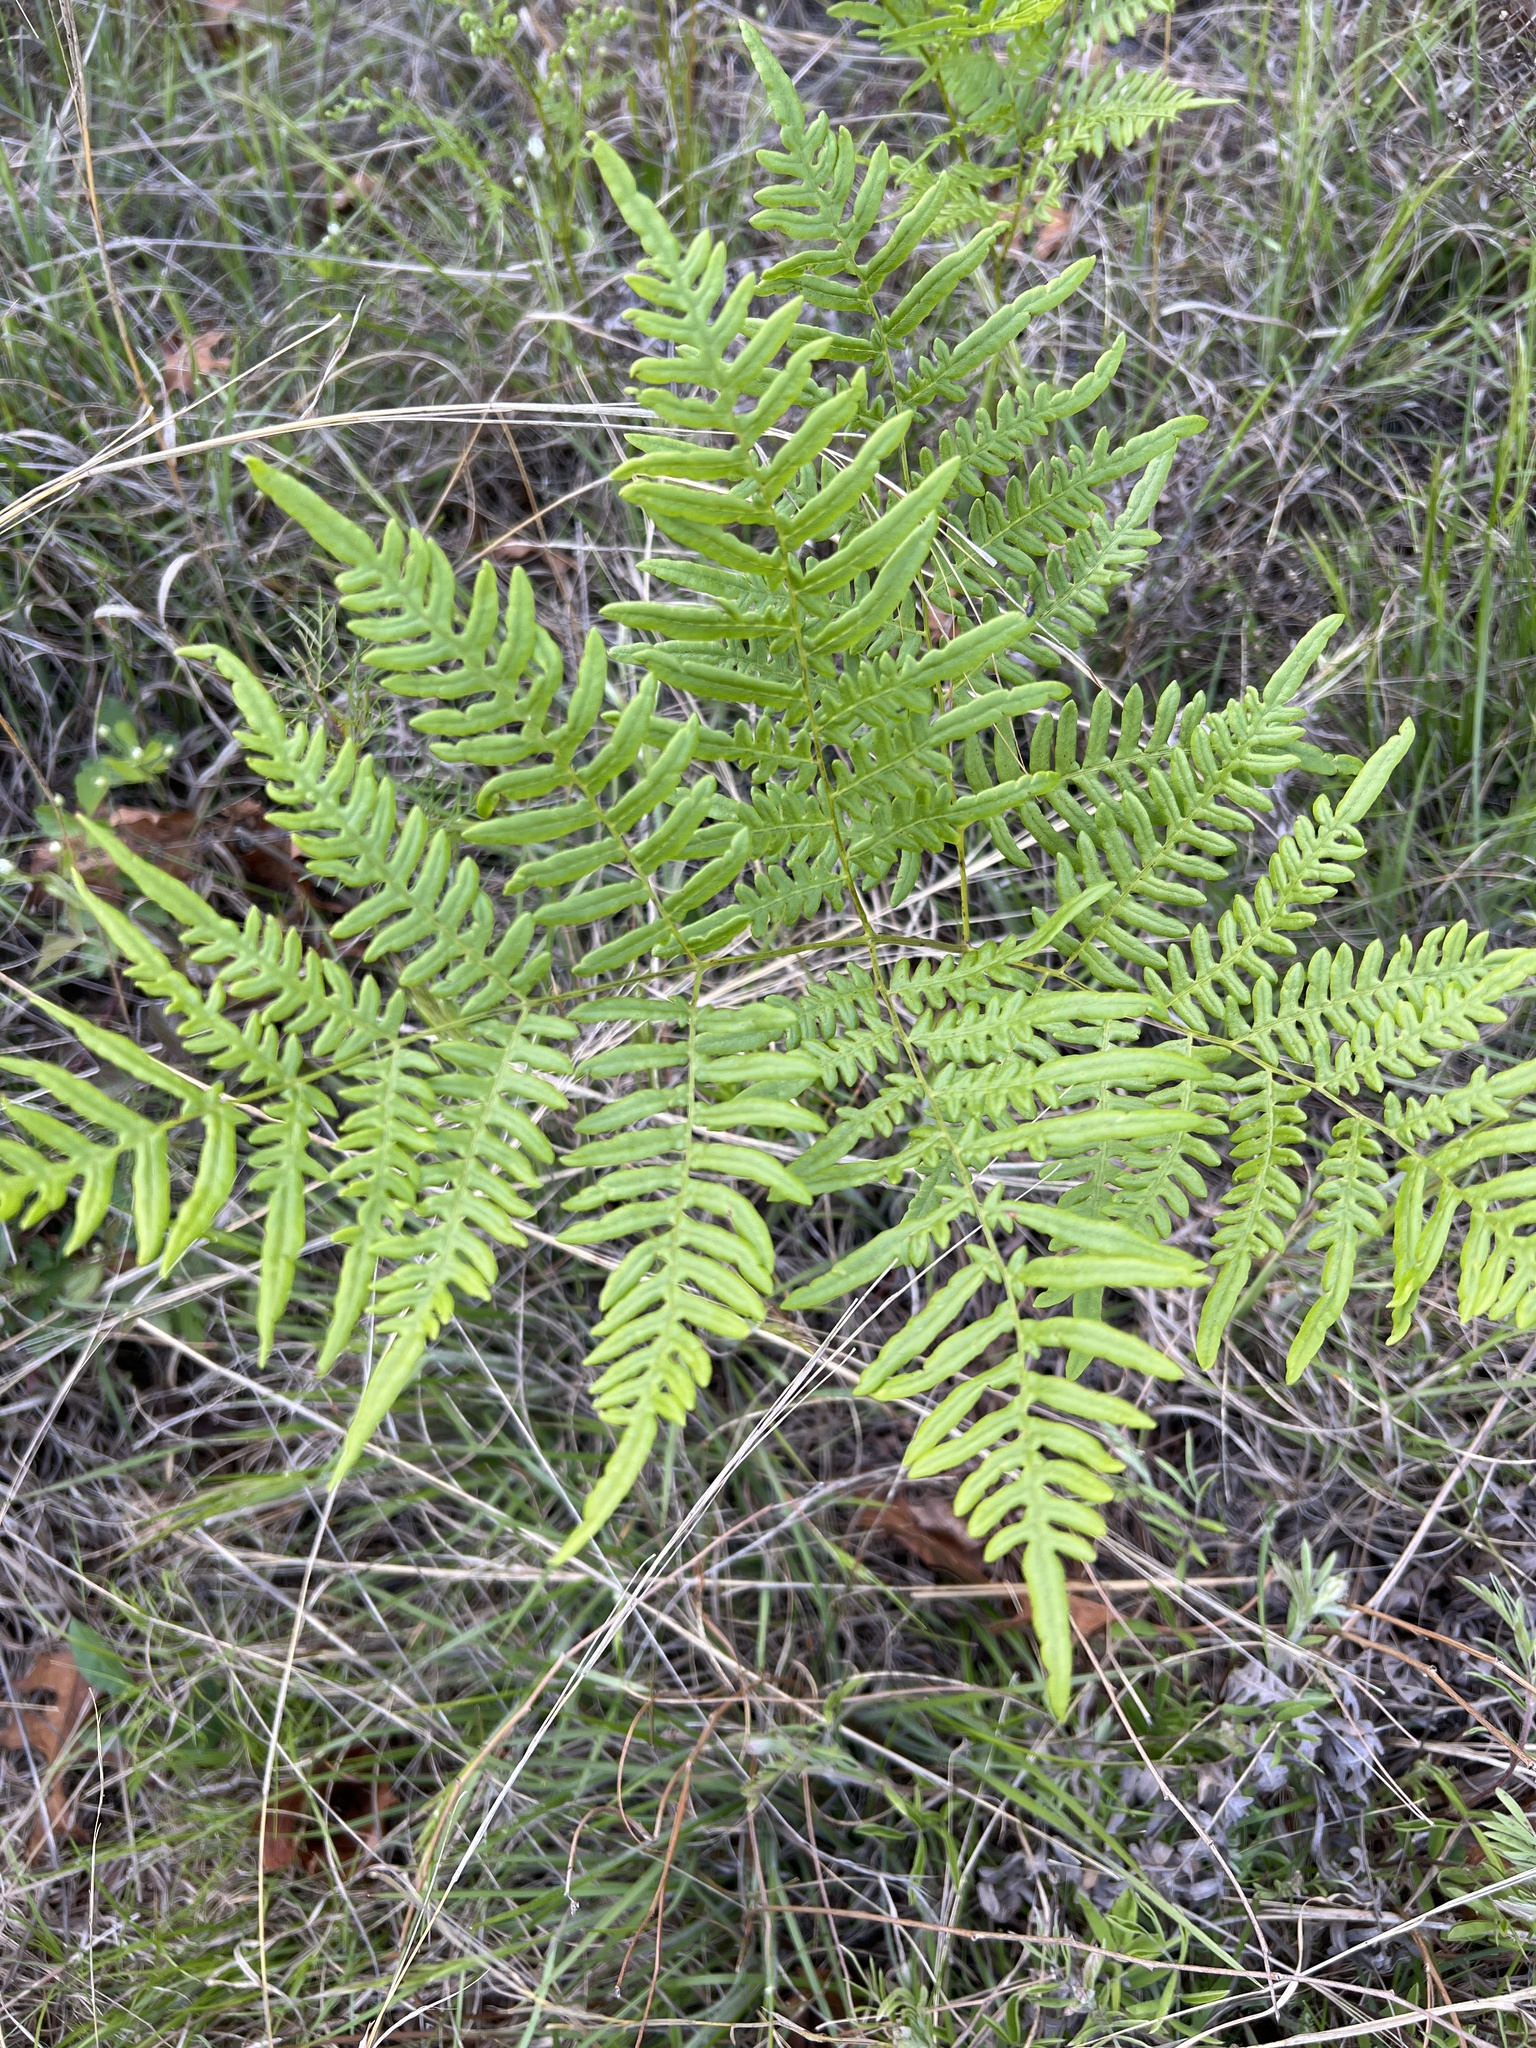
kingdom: Plantae
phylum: Tracheophyta
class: Polypodiopsida
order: Polypodiales
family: Dennstaedtiaceae
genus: Pteridium
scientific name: Pteridium aquilinum
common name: Bracken
